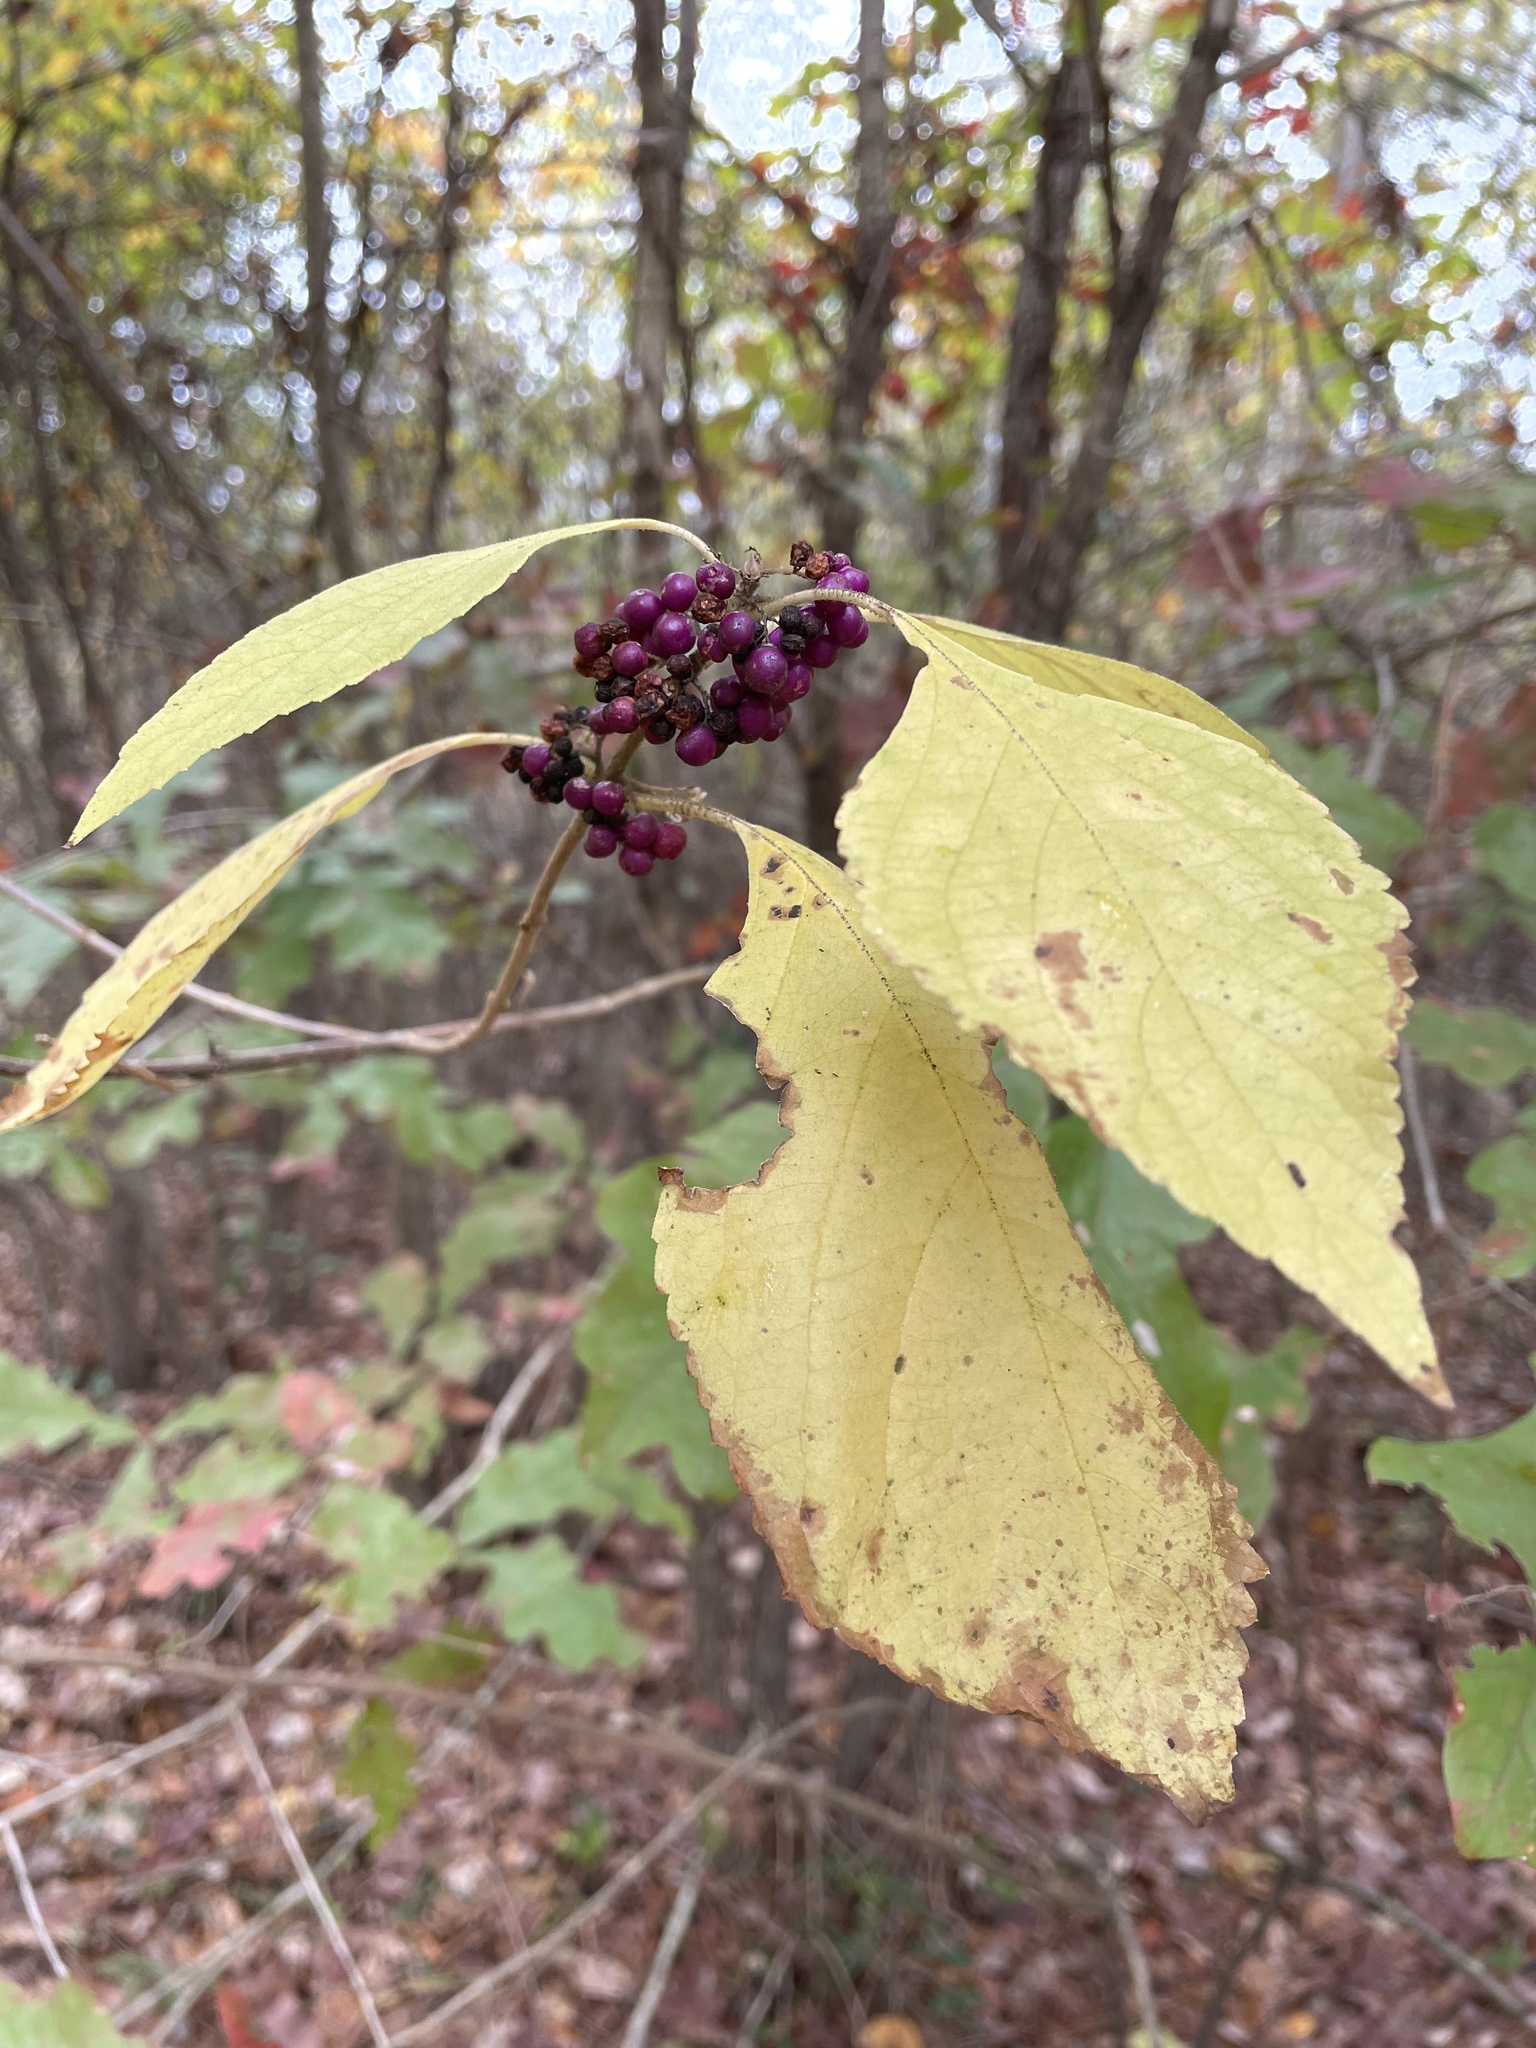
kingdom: Plantae
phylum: Tracheophyta
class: Magnoliopsida
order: Lamiales
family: Lamiaceae
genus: Callicarpa
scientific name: Callicarpa americana
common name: American beautyberry
